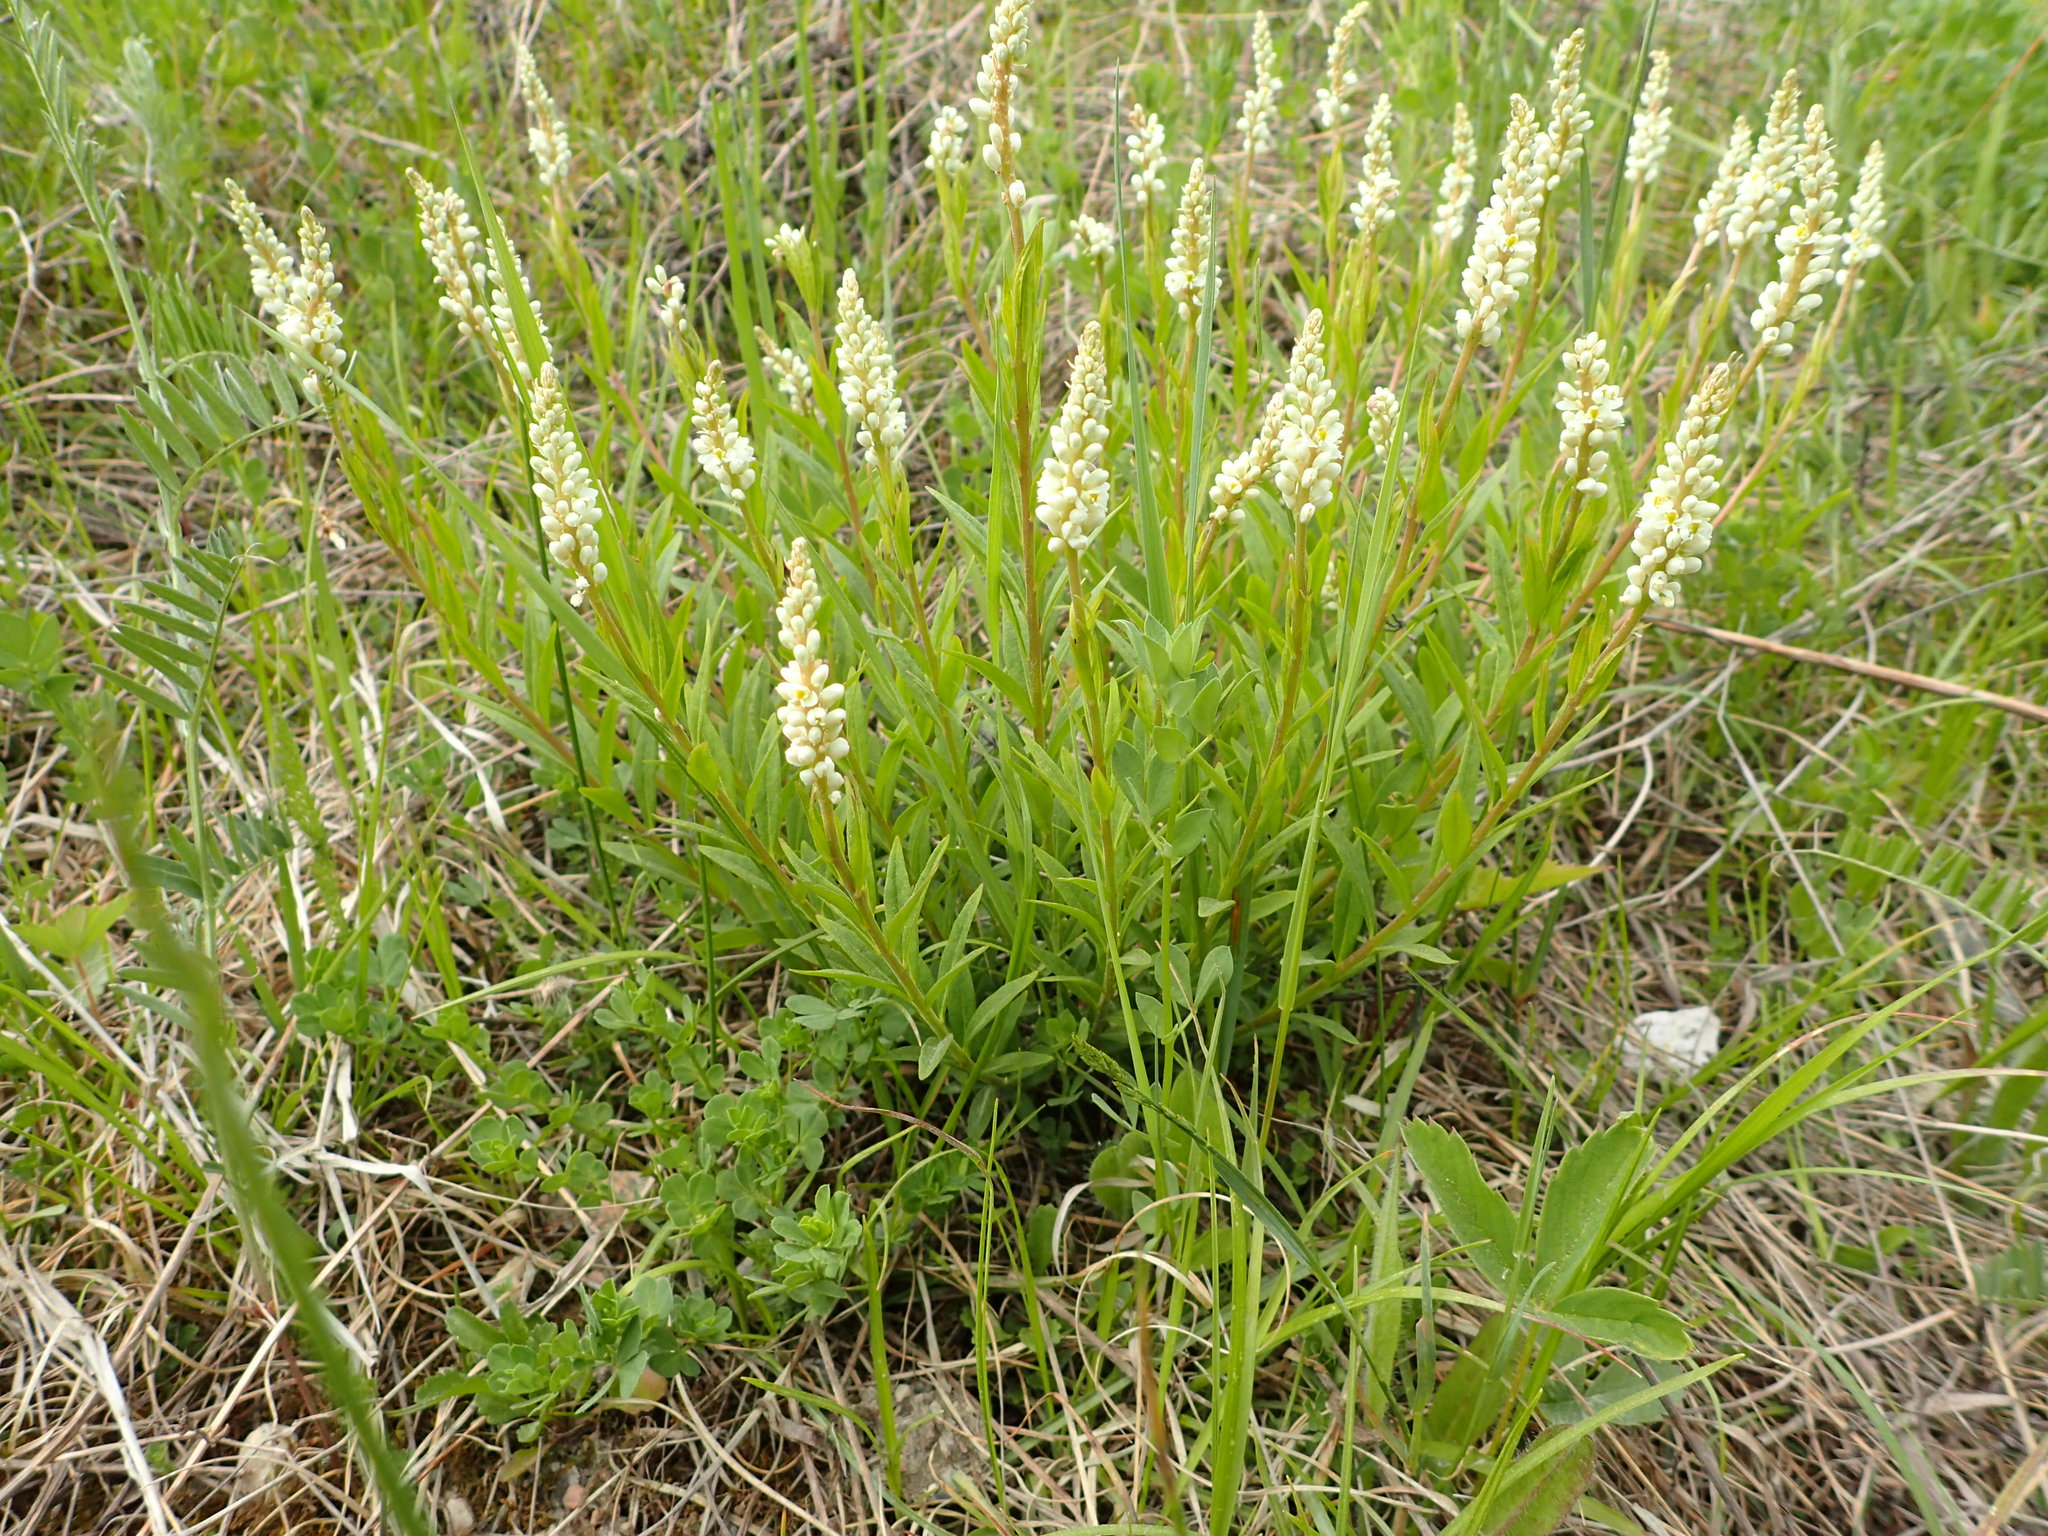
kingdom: Plantae
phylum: Tracheophyta
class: Magnoliopsida
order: Fabales
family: Polygalaceae
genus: Polygala
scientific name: Polygala senega
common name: Seneca snakeroot
